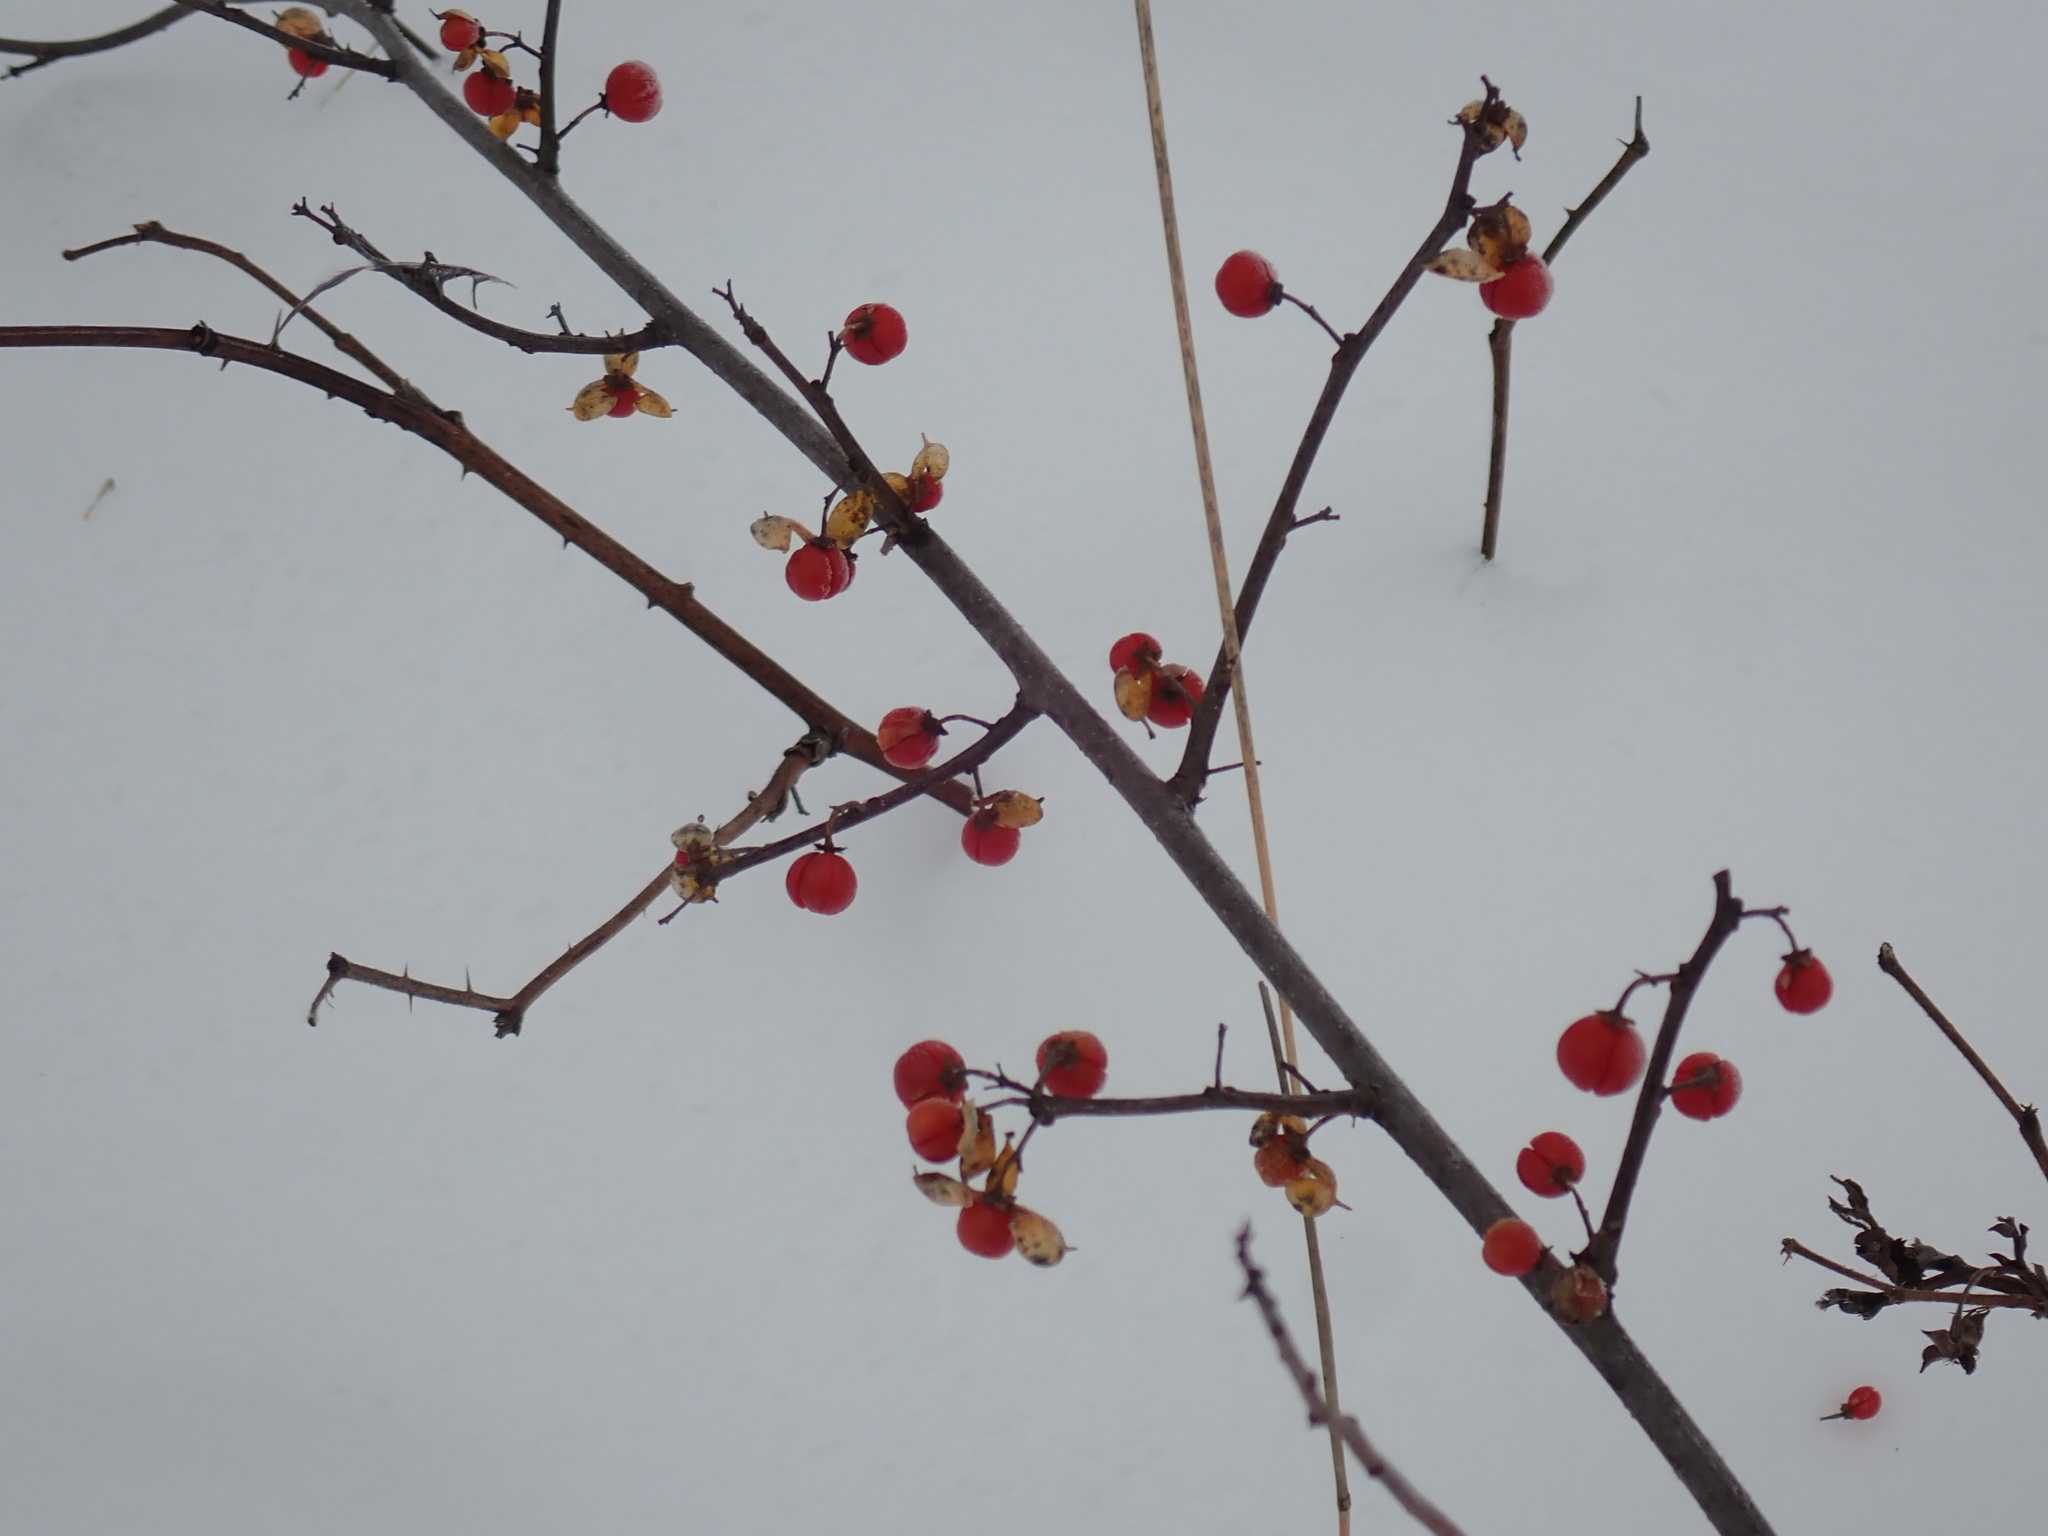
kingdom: Plantae
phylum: Tracheophyta
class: Magnoliopsida
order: Celastrales
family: Celastraceae
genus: Celastrus
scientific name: Celastrus orbiculatus
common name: Oriental bittersweet
